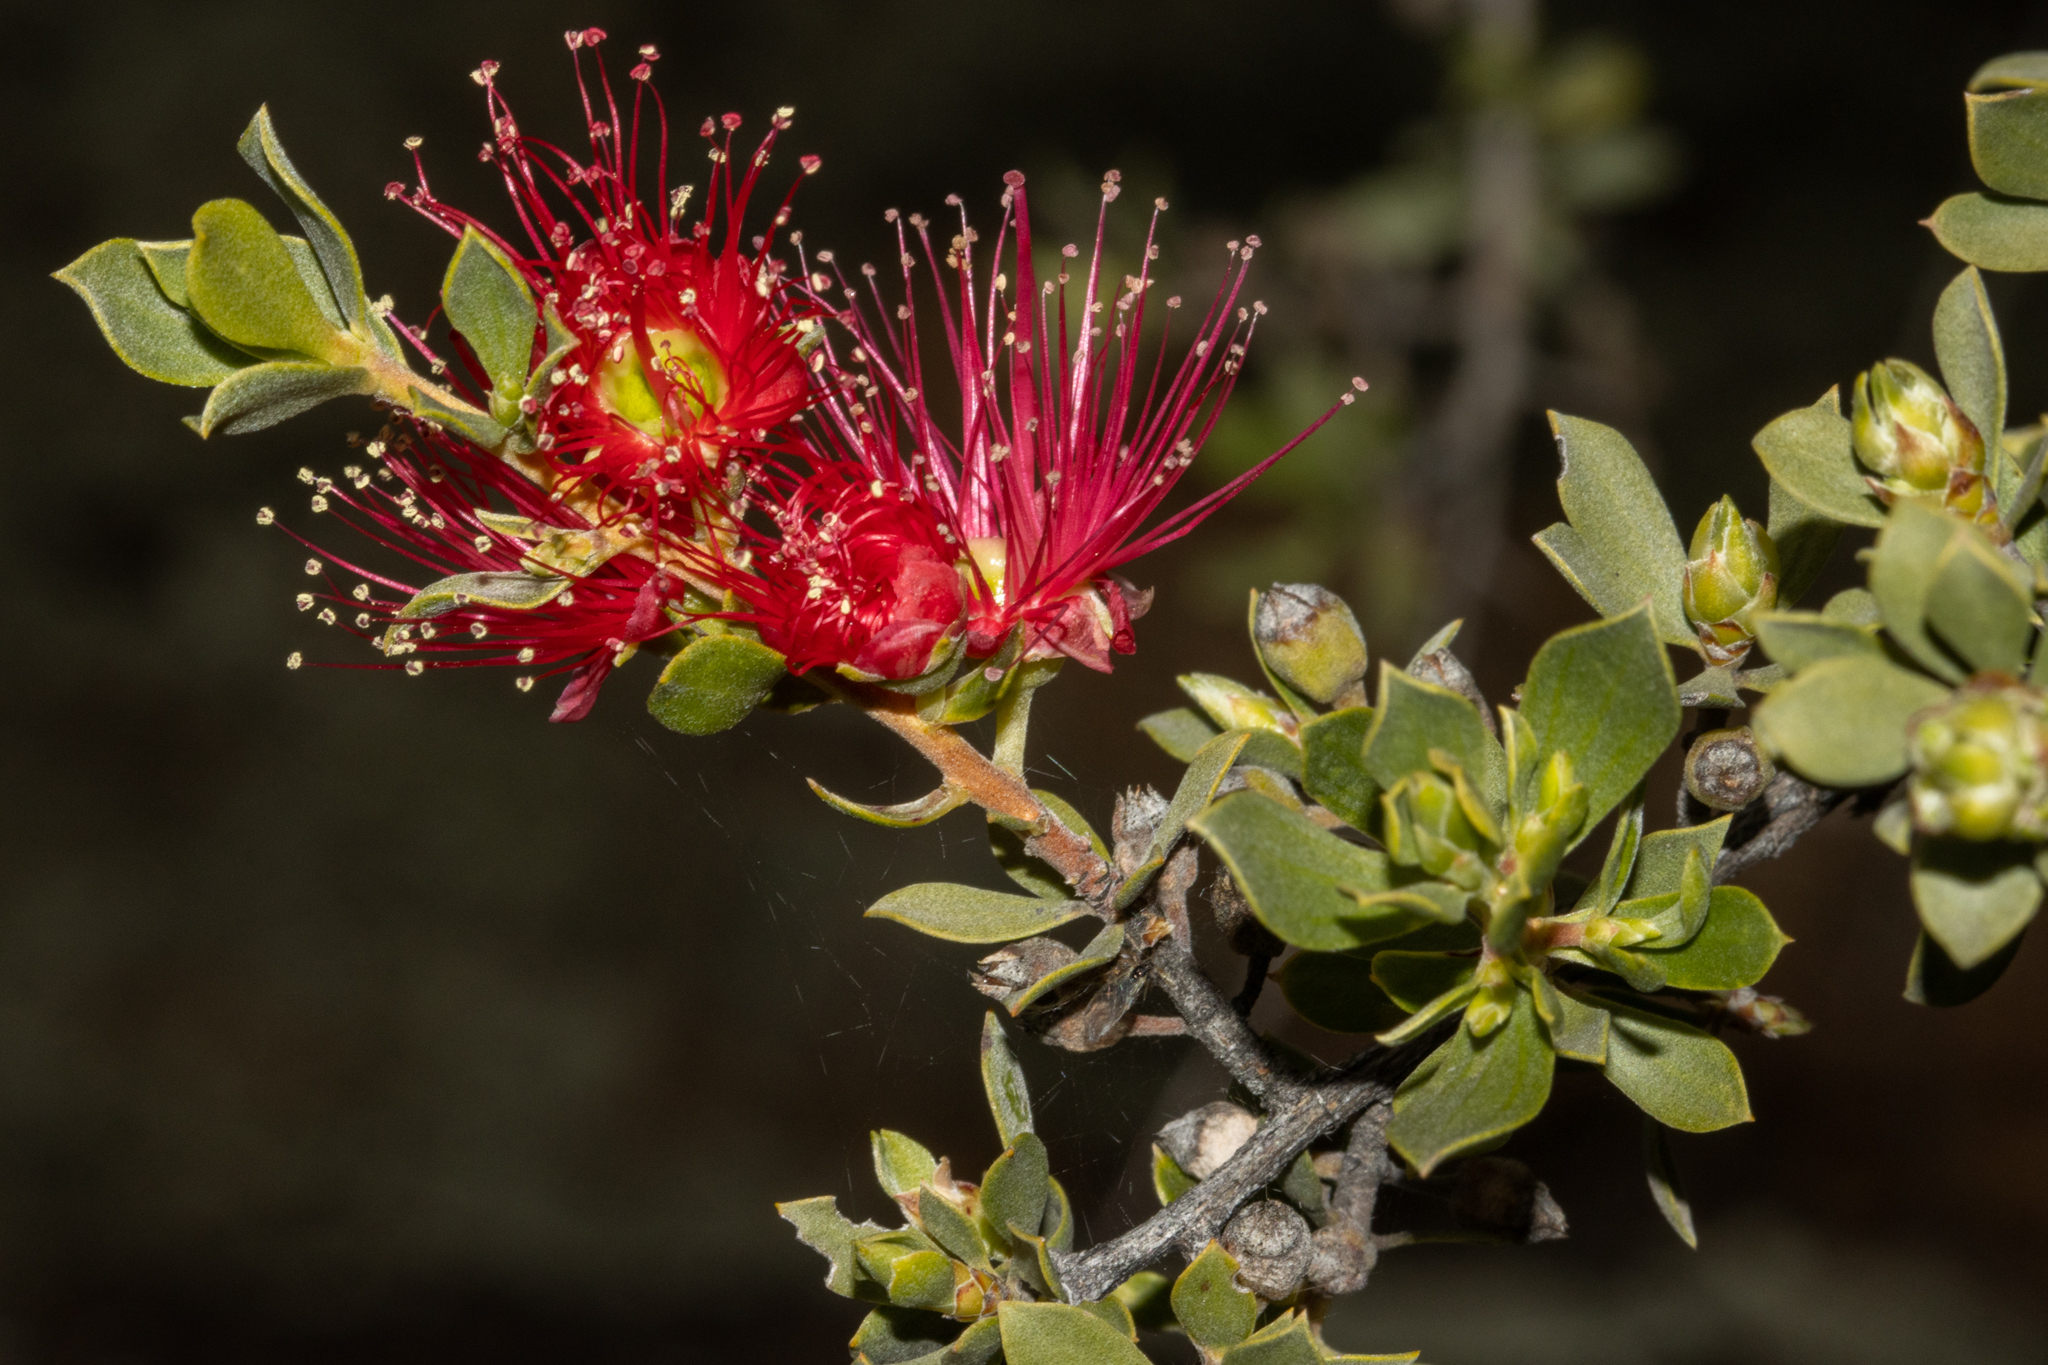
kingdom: Plantae
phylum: Tracheophyta
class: Magnoliopsida
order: Myrtales
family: Myrtaceae
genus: Kunzea
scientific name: Kunzea pulchella
